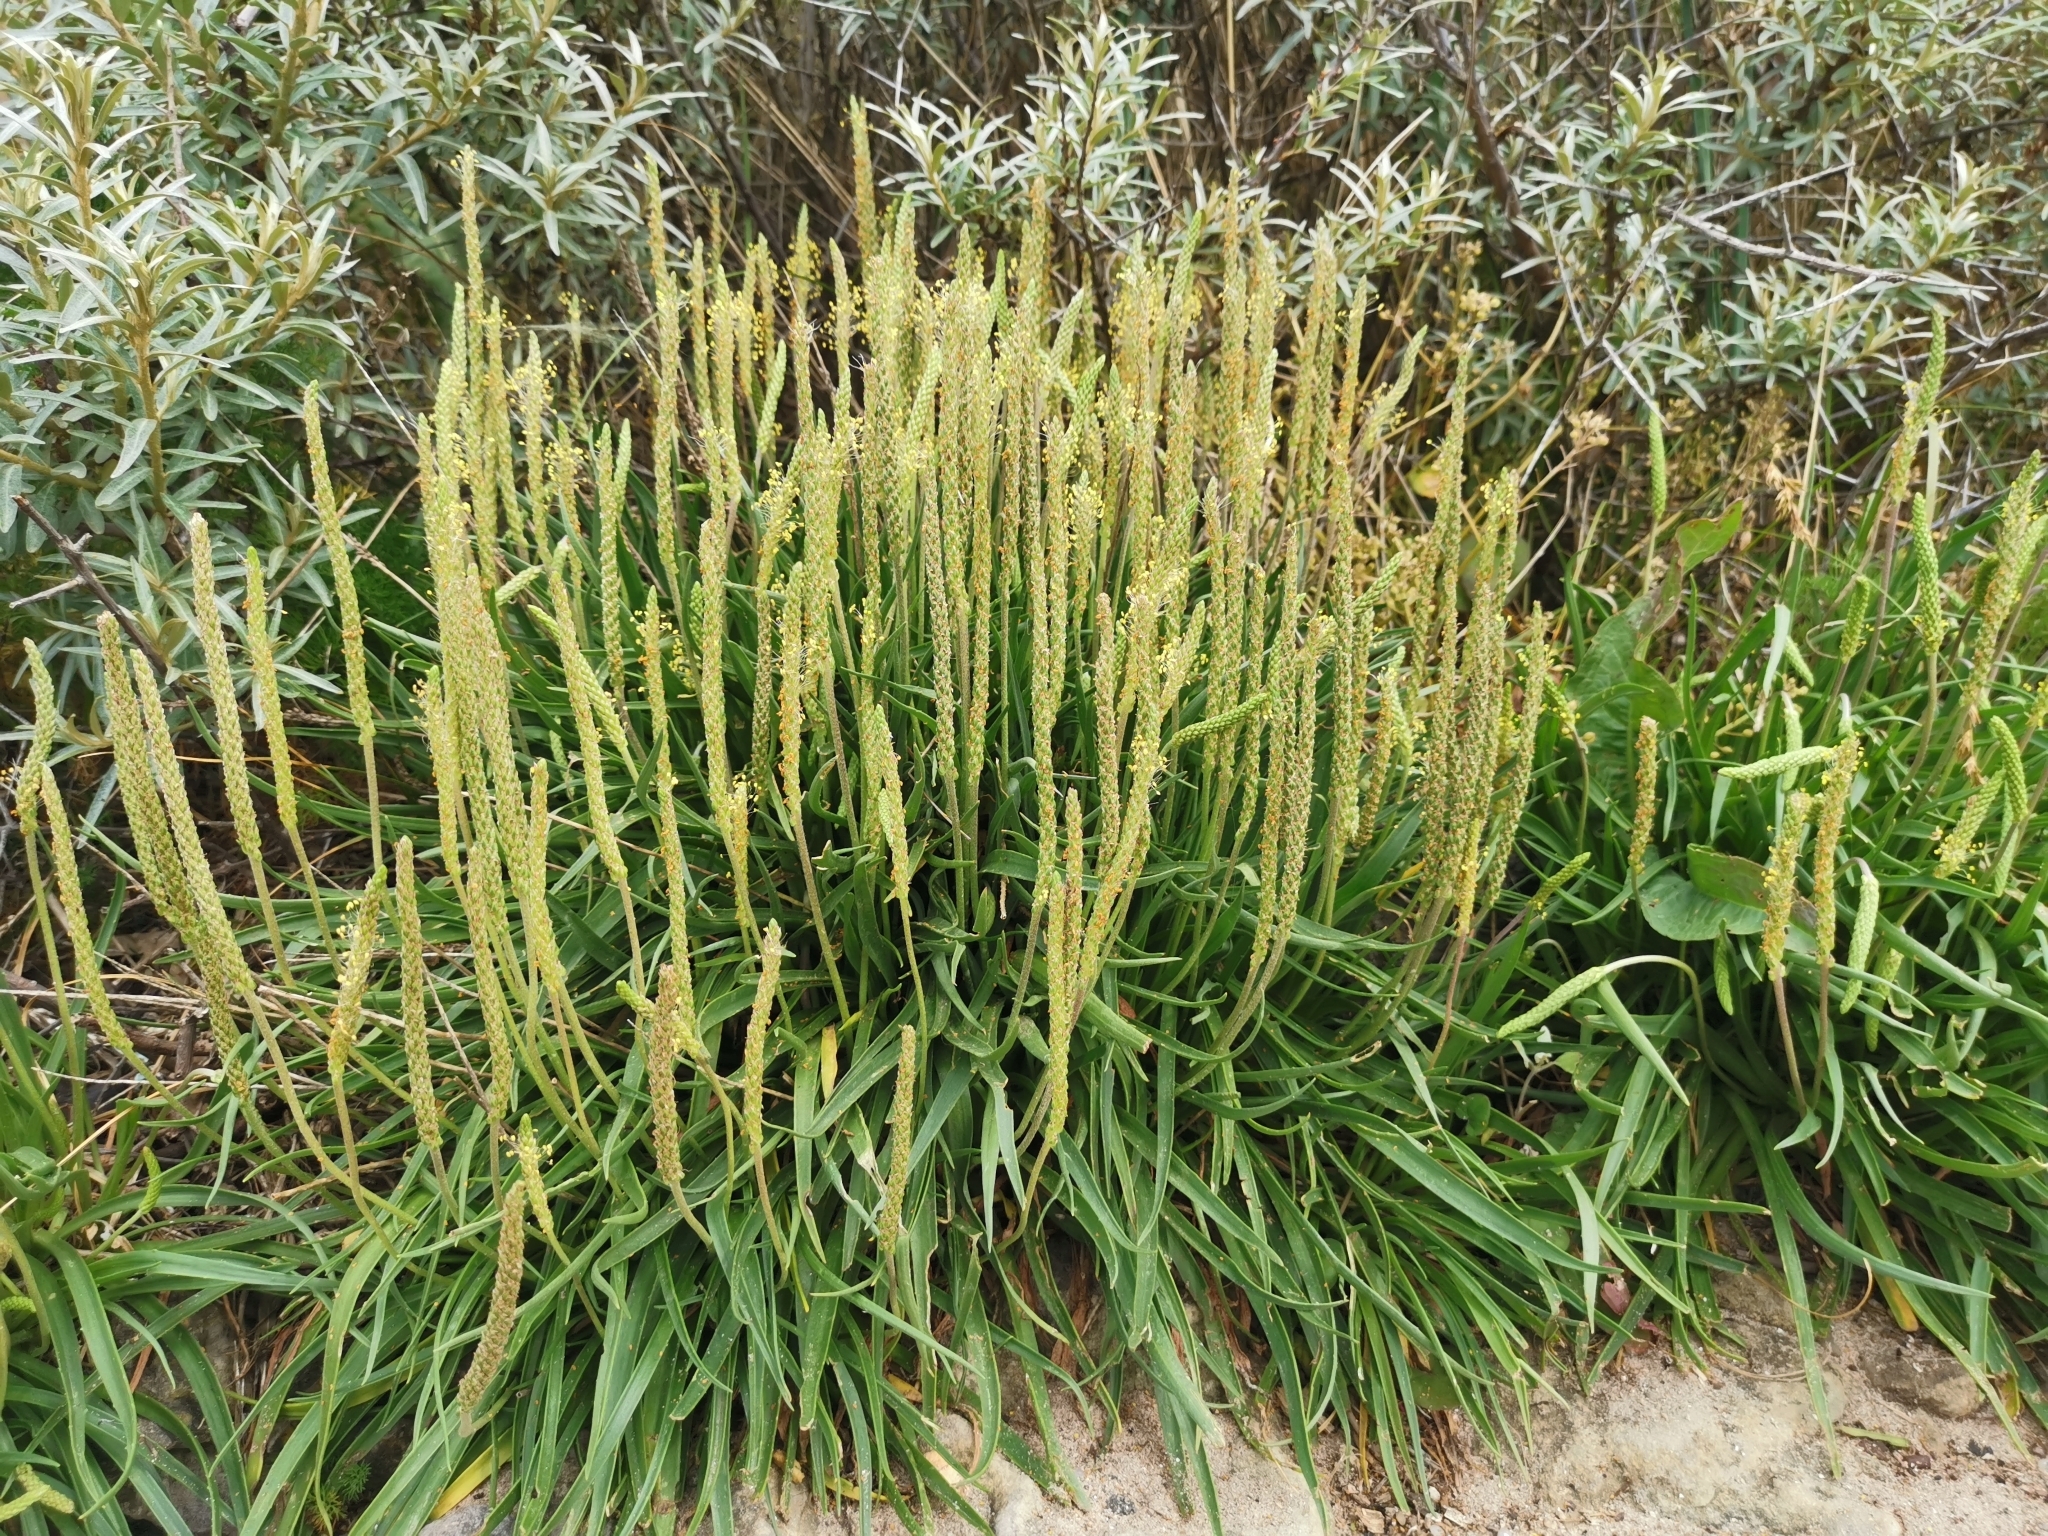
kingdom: Plantae
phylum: Tracheophyta
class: Magnoliopsida
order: Lamiales
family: Plantaginaceae
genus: Plantago
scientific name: Plantago maritima
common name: Sea plantain
